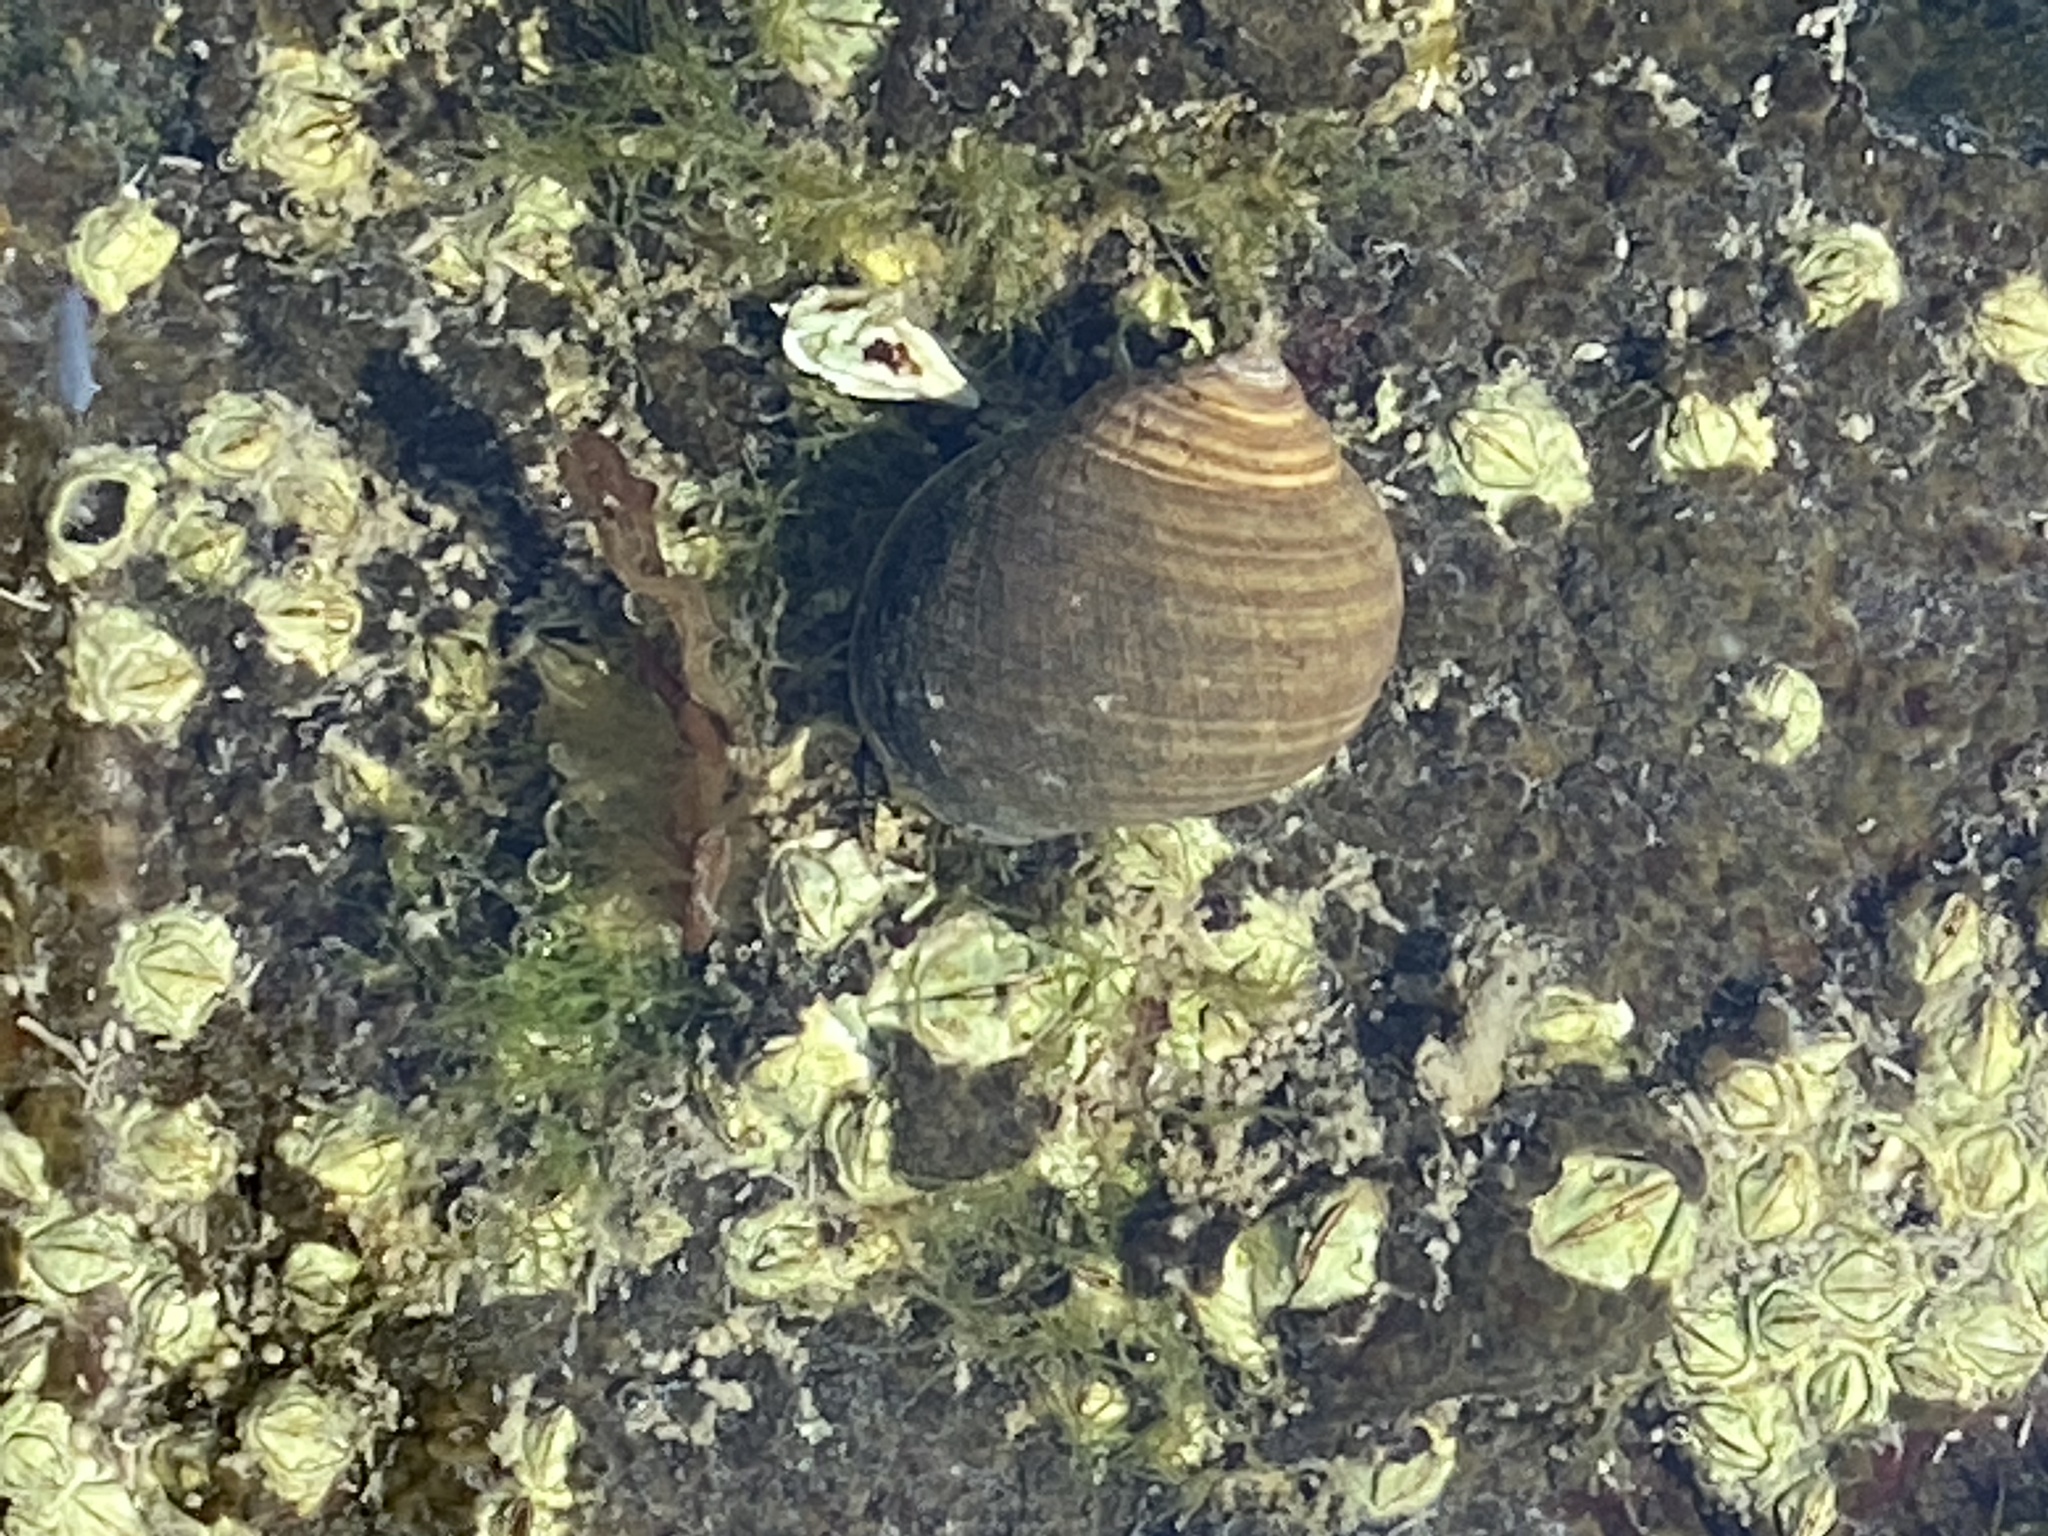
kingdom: Animalia
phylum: Mollusca
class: Gastropoda
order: Littorinimorpha
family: Littorinidae
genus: Littorina
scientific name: Littorina littorea
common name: Common periwinkle
